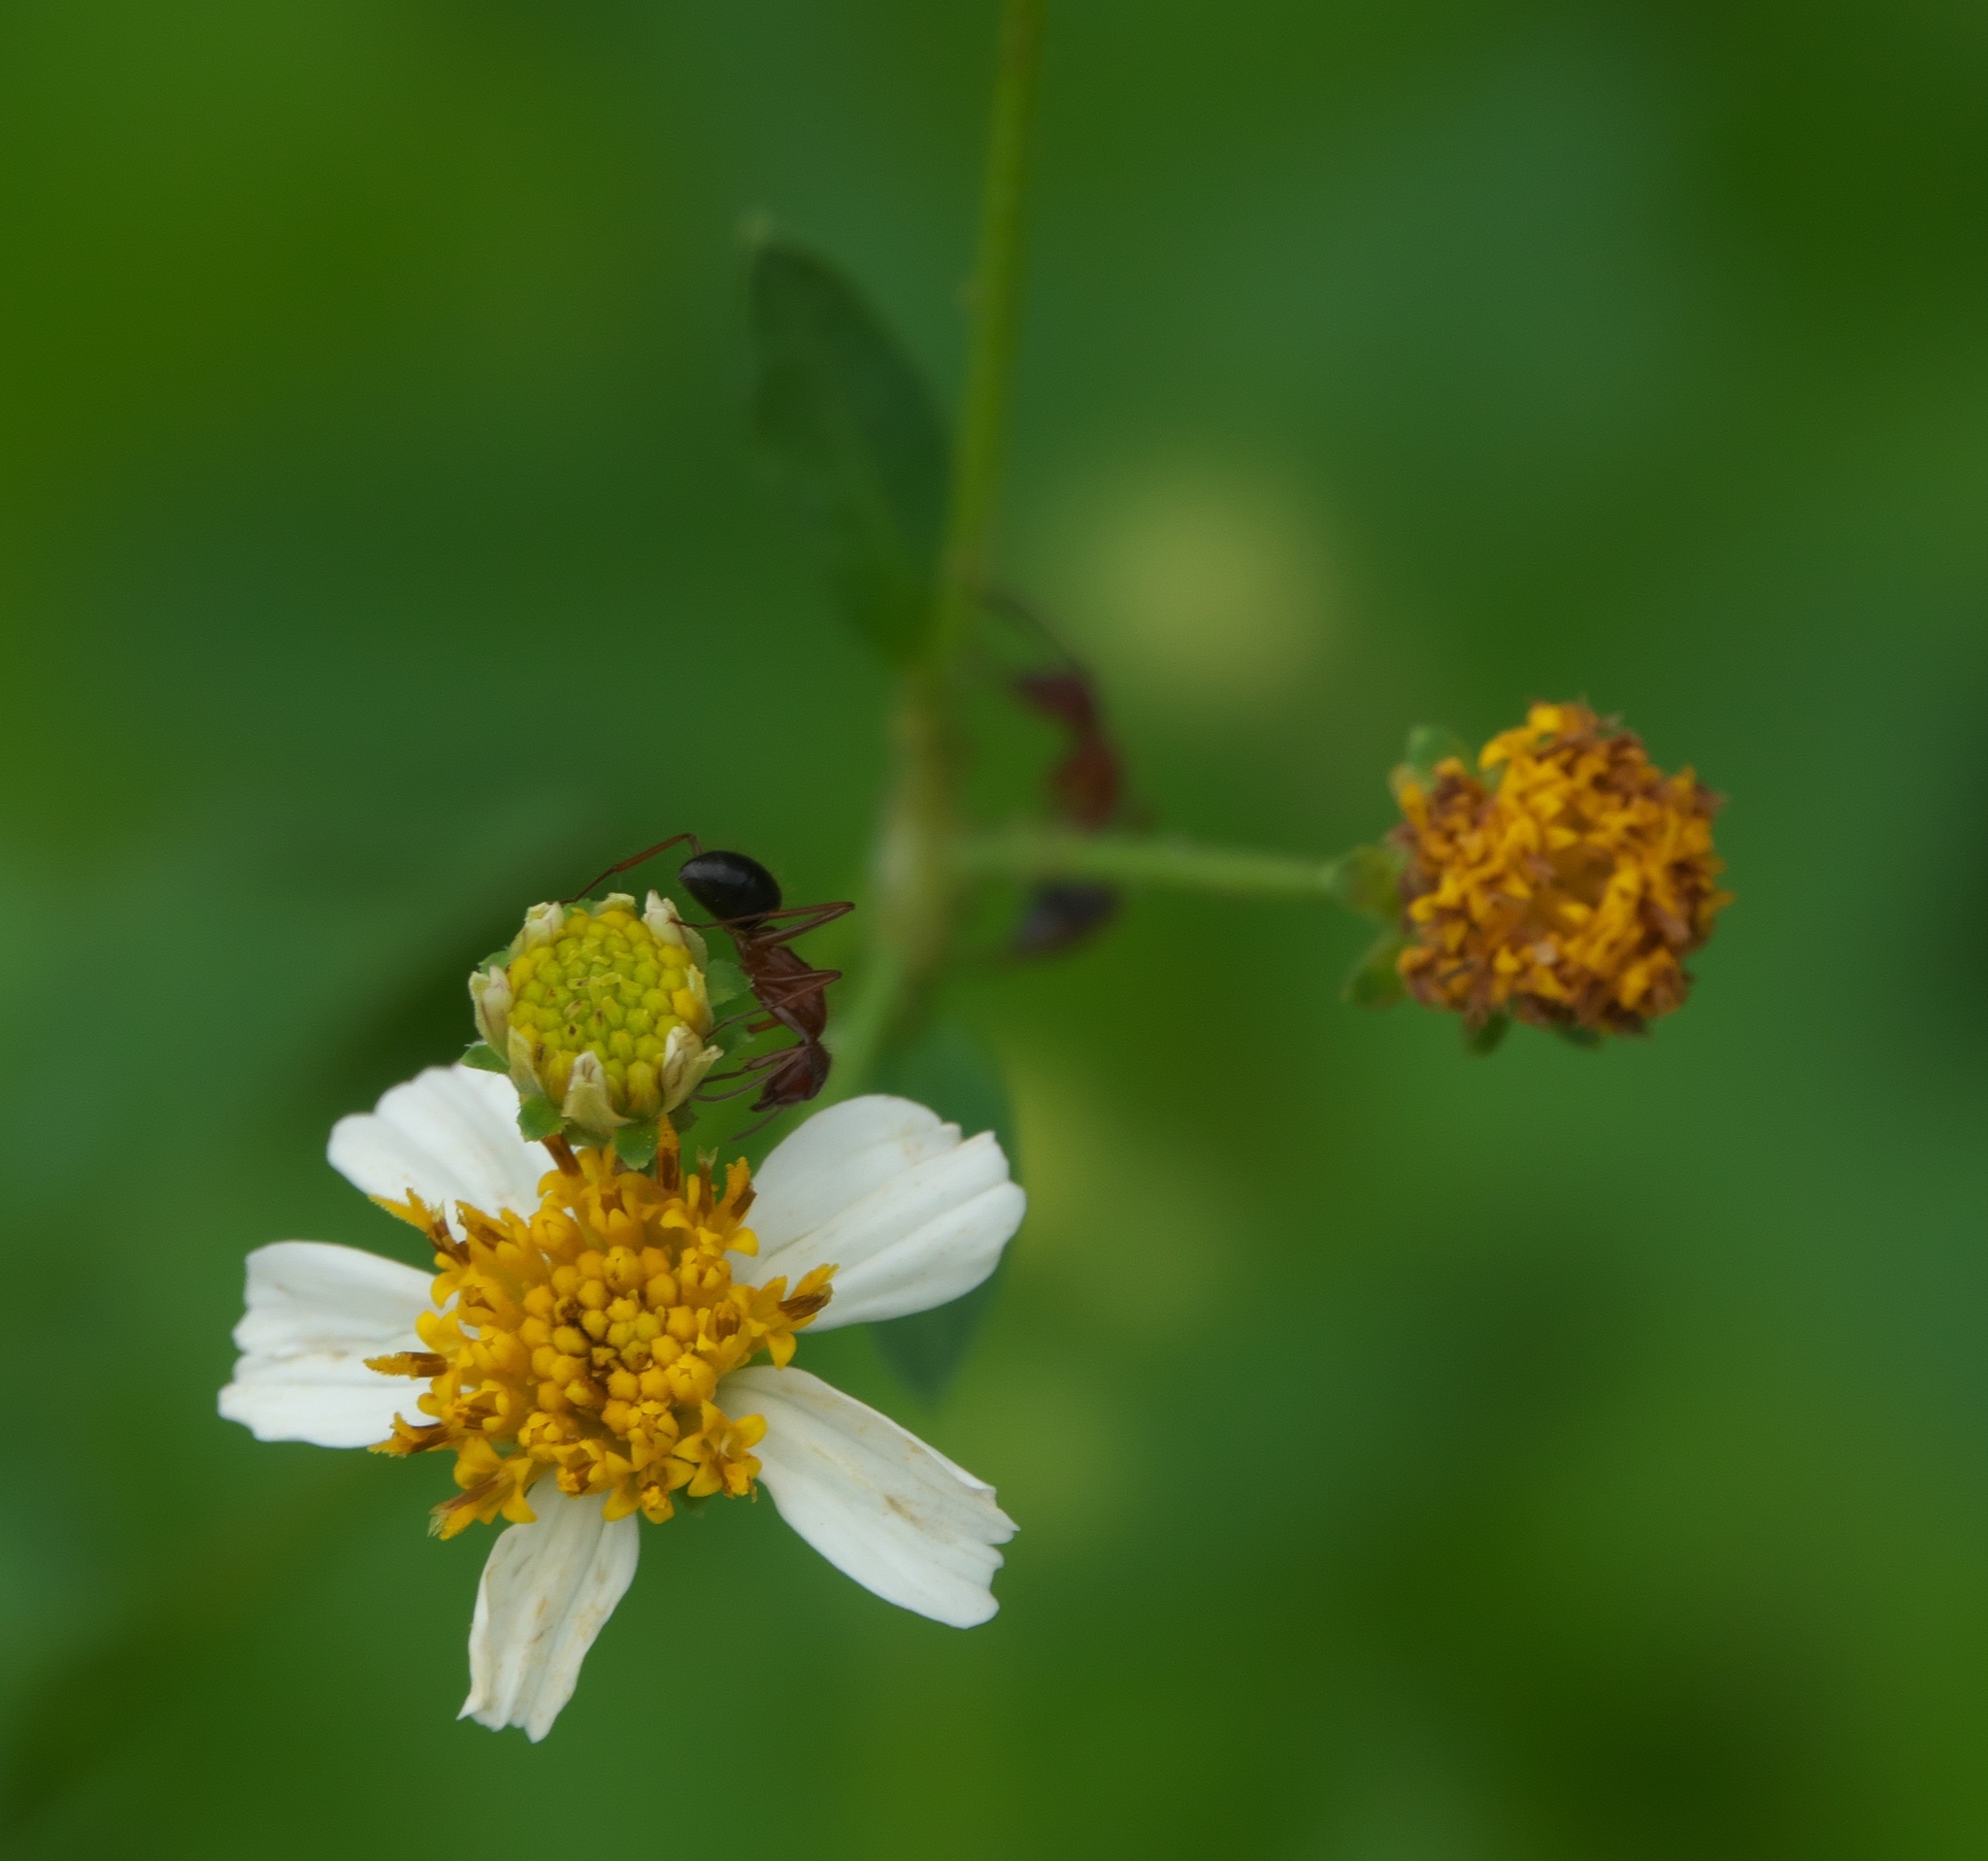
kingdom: Plantae
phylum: Tracheophyta
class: Magnoliopsida
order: Asterales
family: Asteraceae
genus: Bidens
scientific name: Bidens alba
